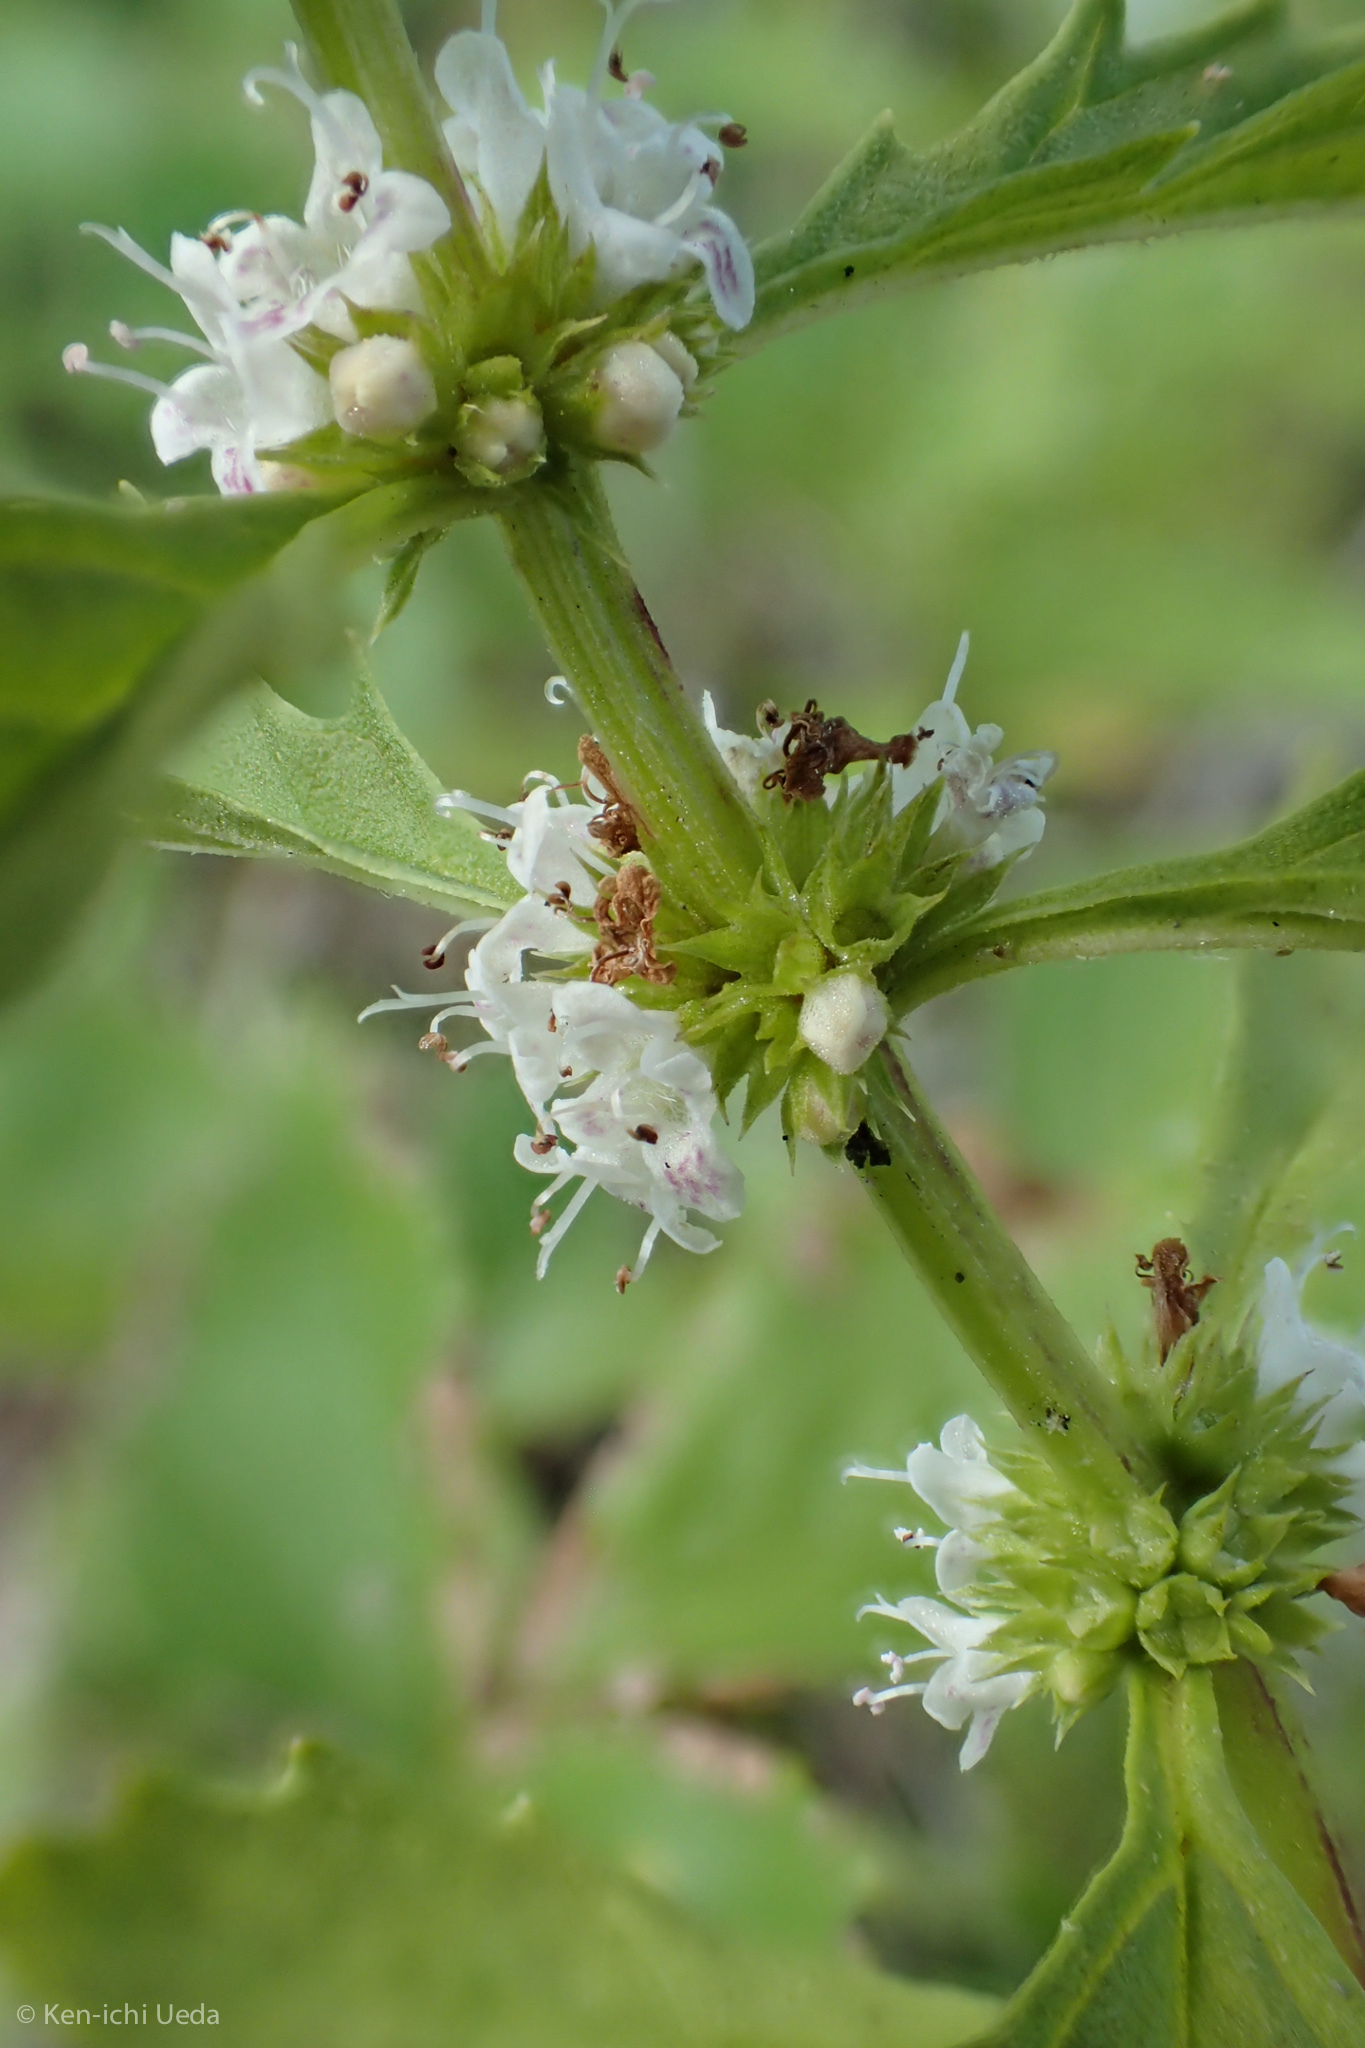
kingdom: Plantae
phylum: Tracheophyta
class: Magnoliopsida
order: Lamiales
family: Lamiaceae
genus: Lycopus
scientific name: Lycopus americanus
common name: American bugleweed
